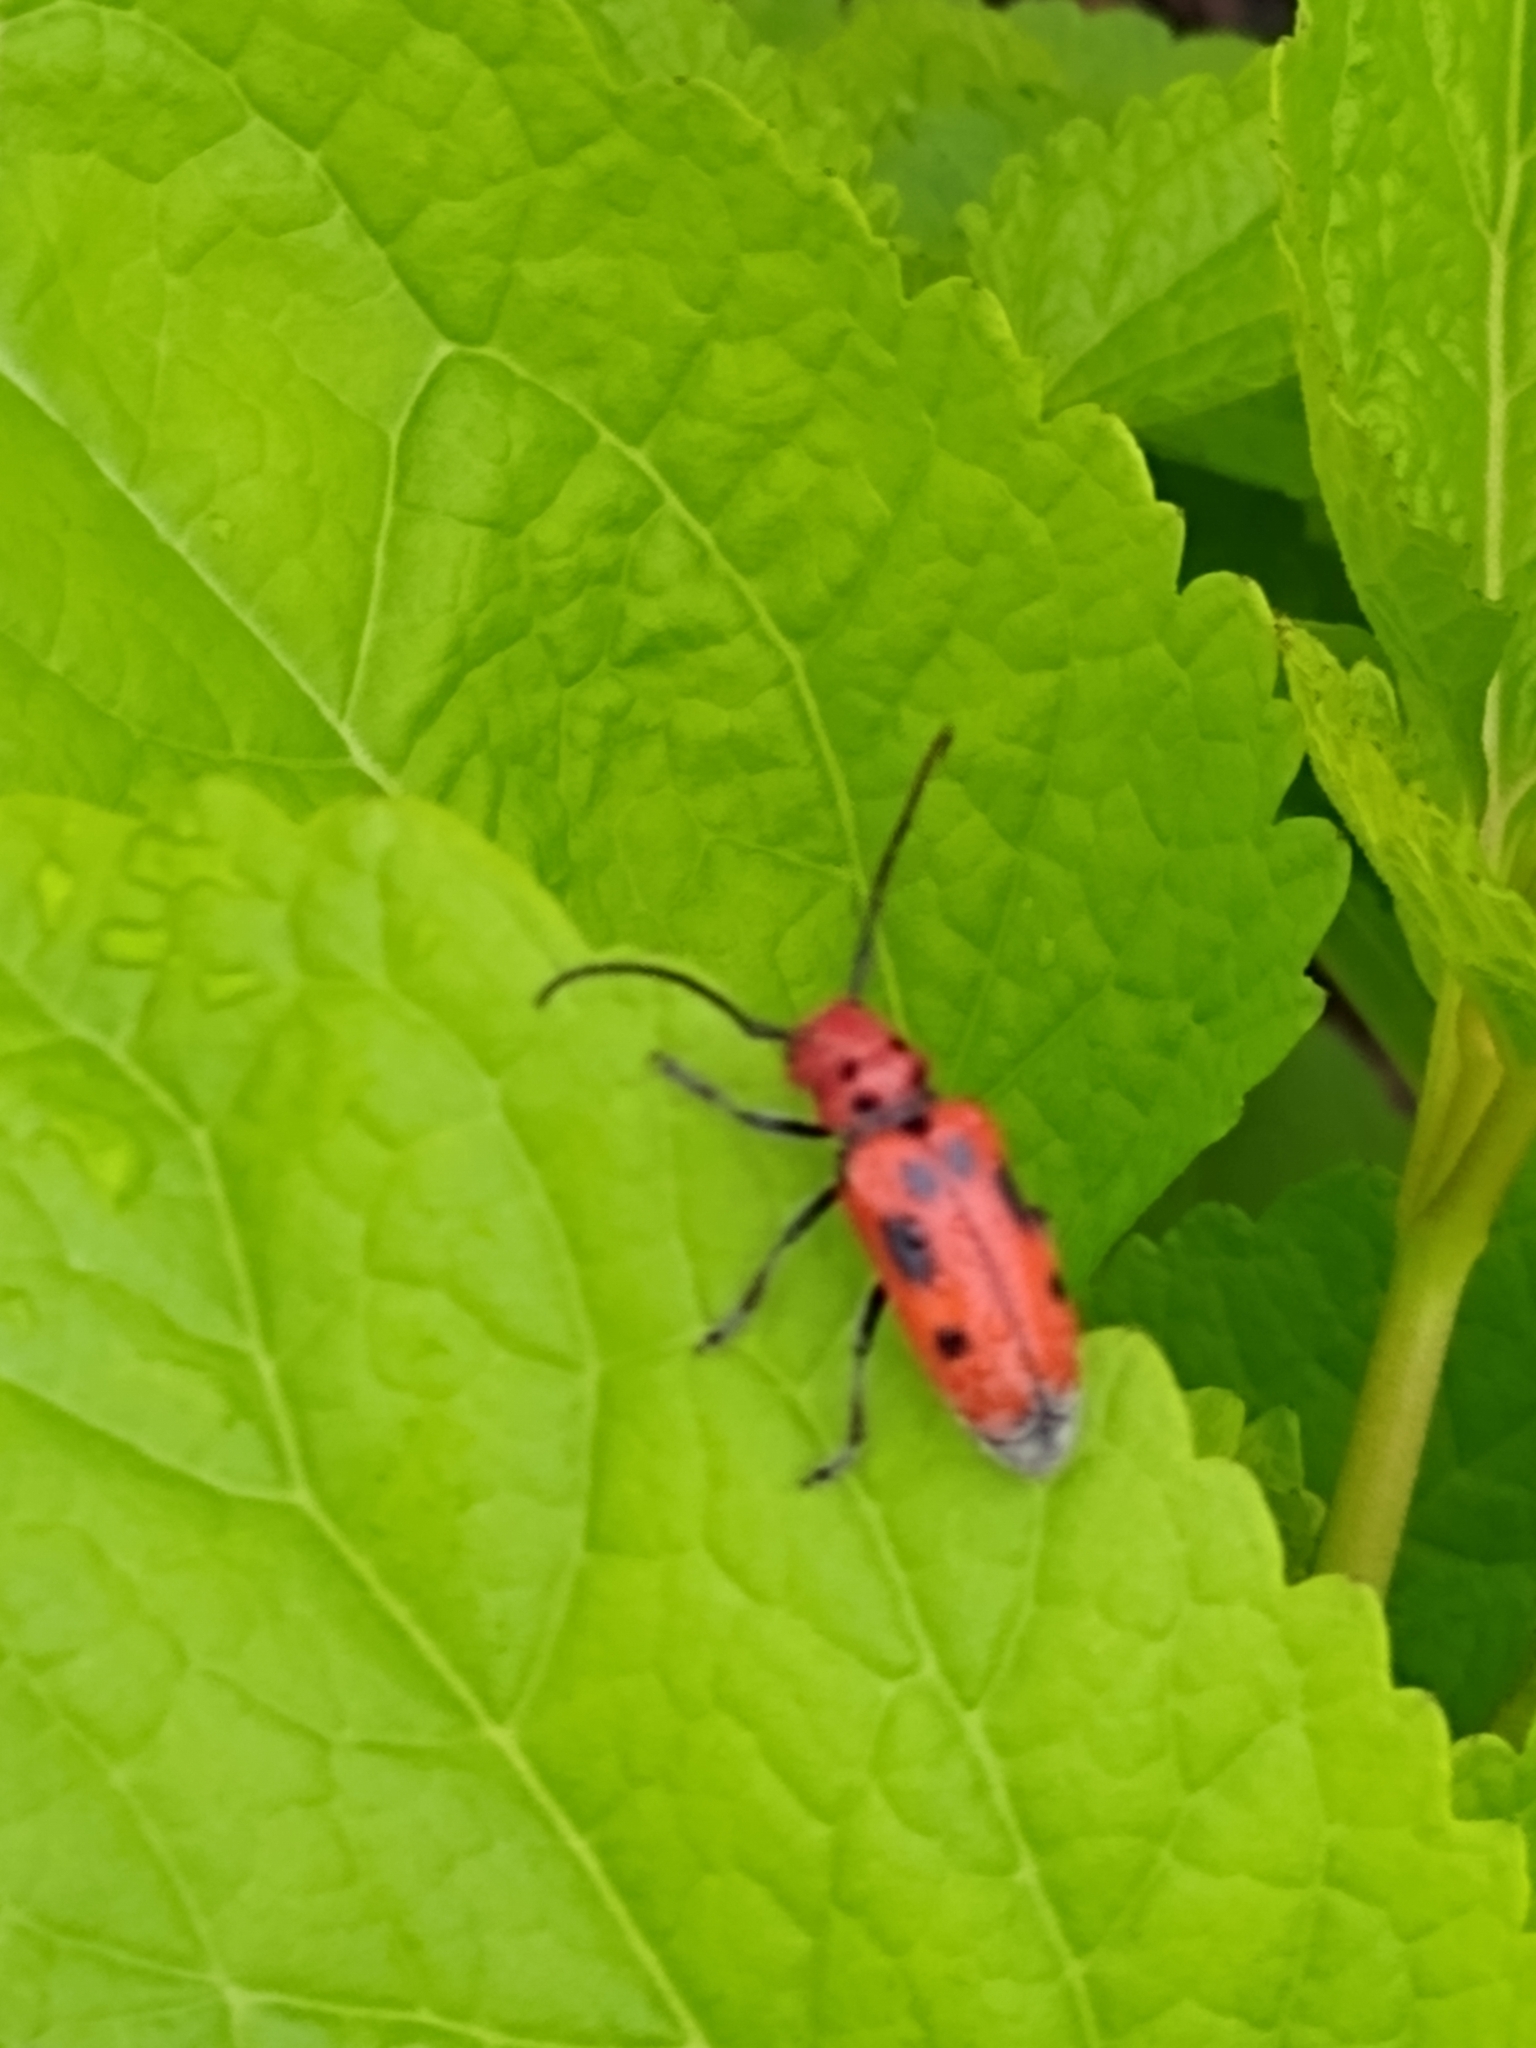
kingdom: Animalia
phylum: Arthropoda
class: Insecta
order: Coleoptera
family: Cerambycidae
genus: Tetraopes
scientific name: Tetraopes tetrophthalmus
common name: Red milkweed beetle
